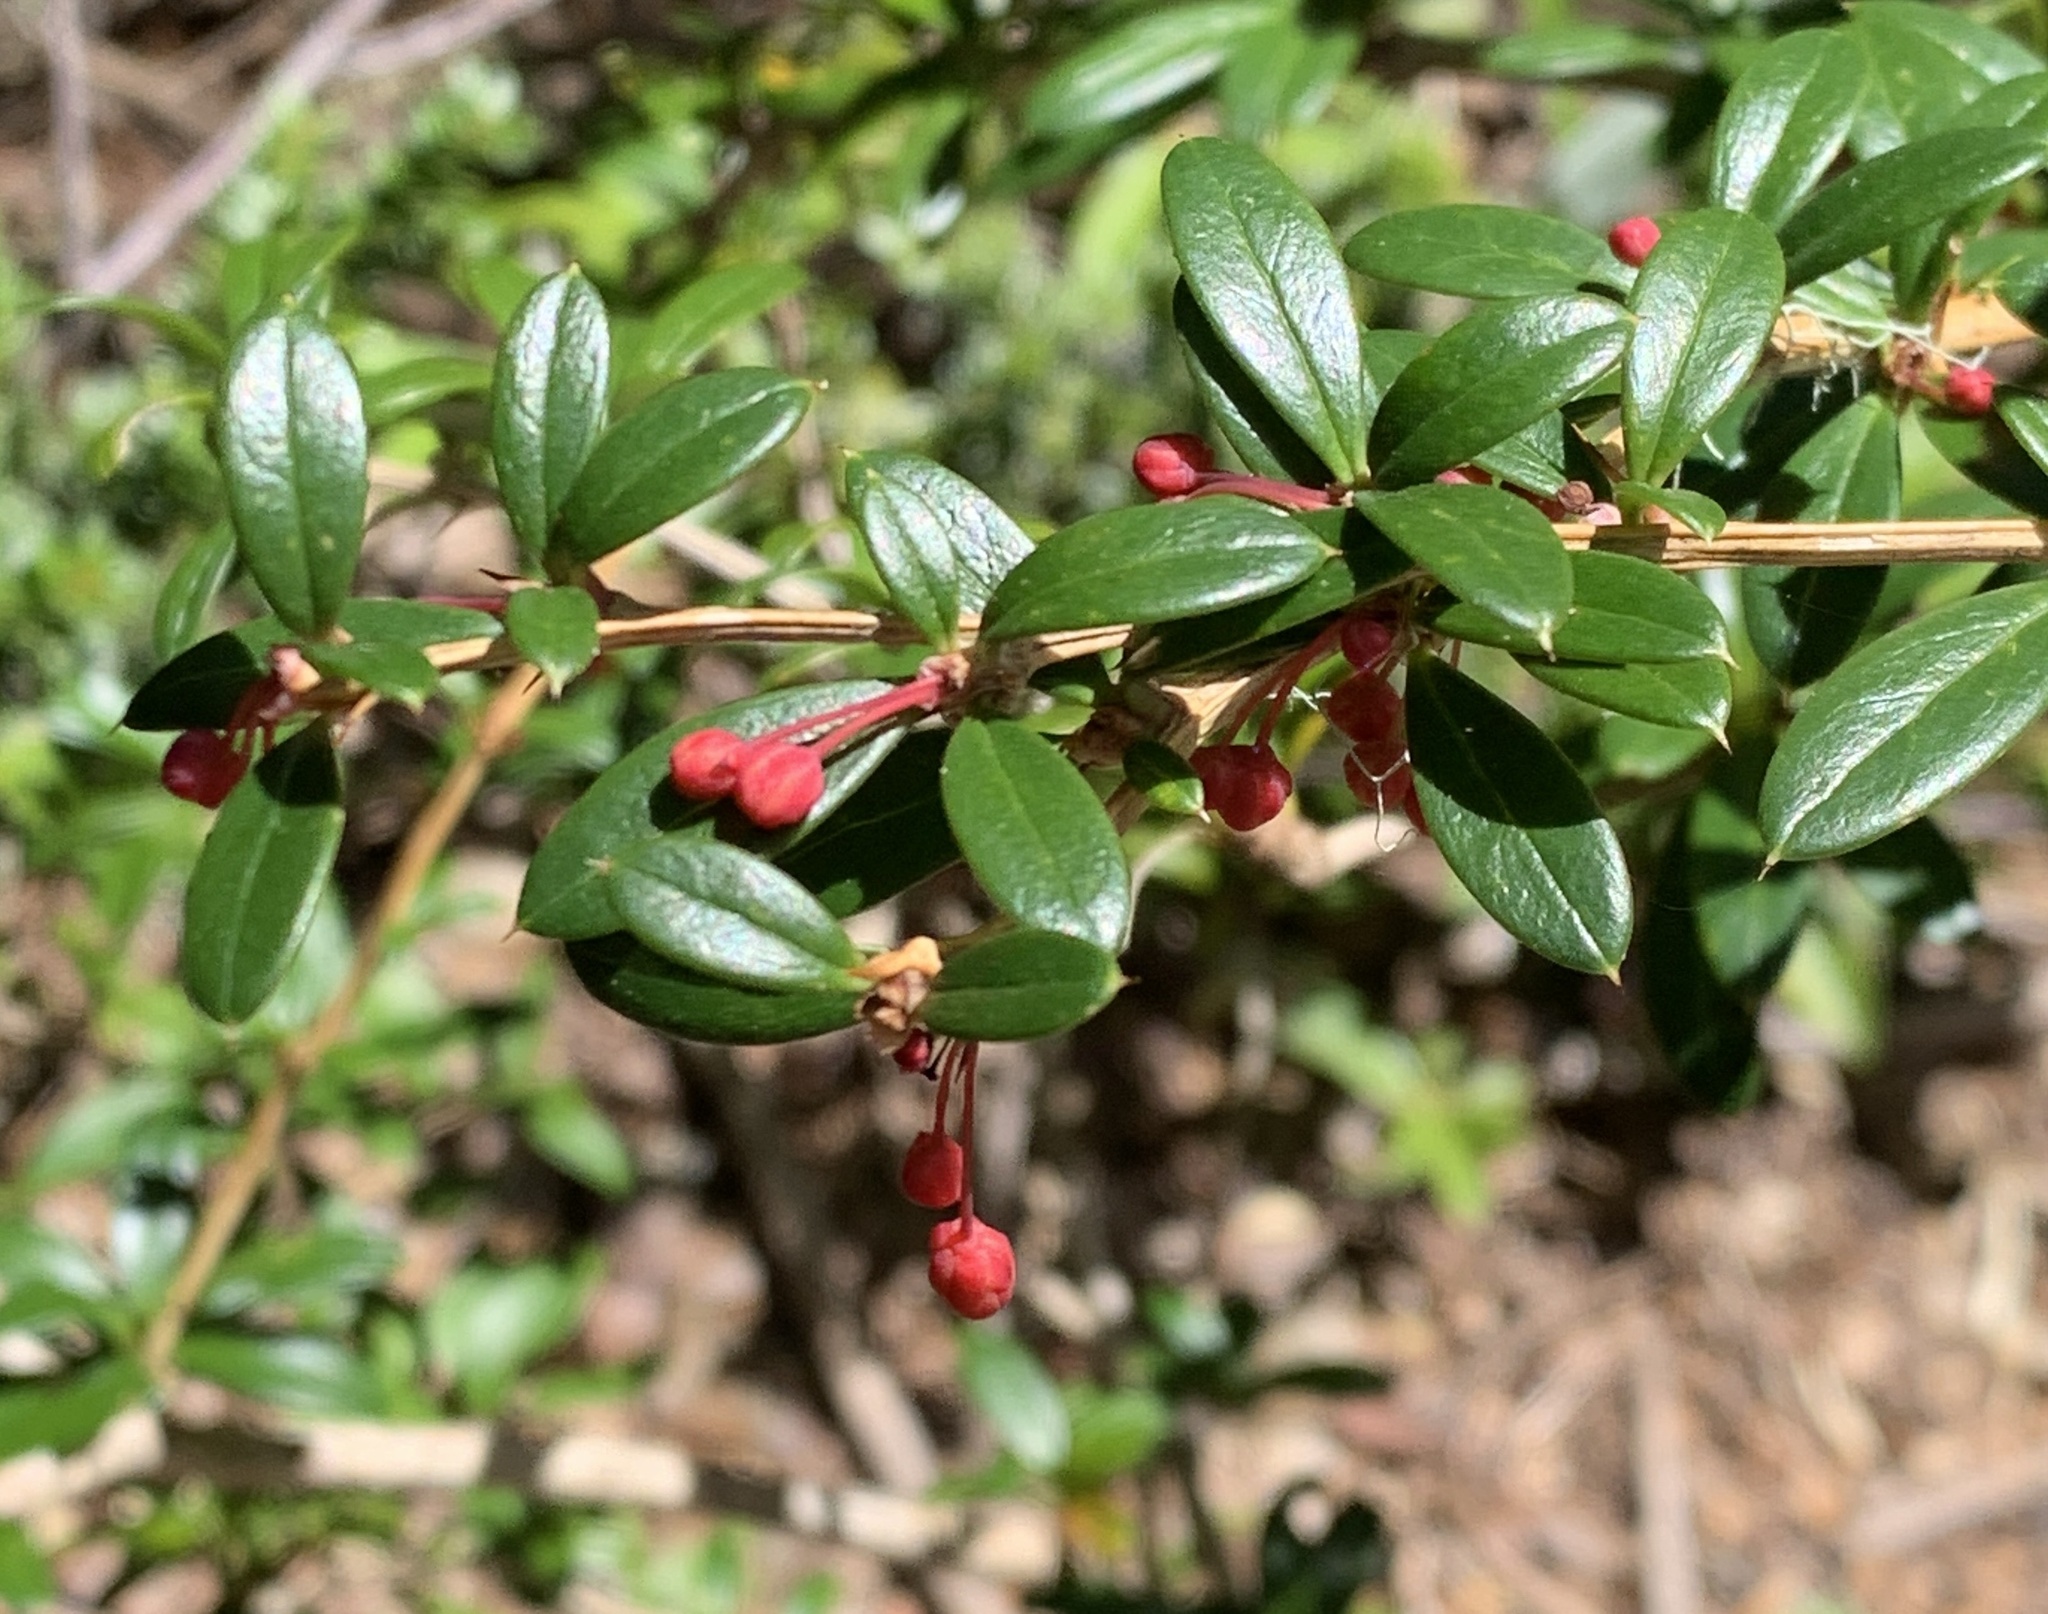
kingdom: Plantae
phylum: Tracheophyta
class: Magnoliopsida
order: Ranunculales
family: Berberidaceae
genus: Berberis
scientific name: Berberis trigona
